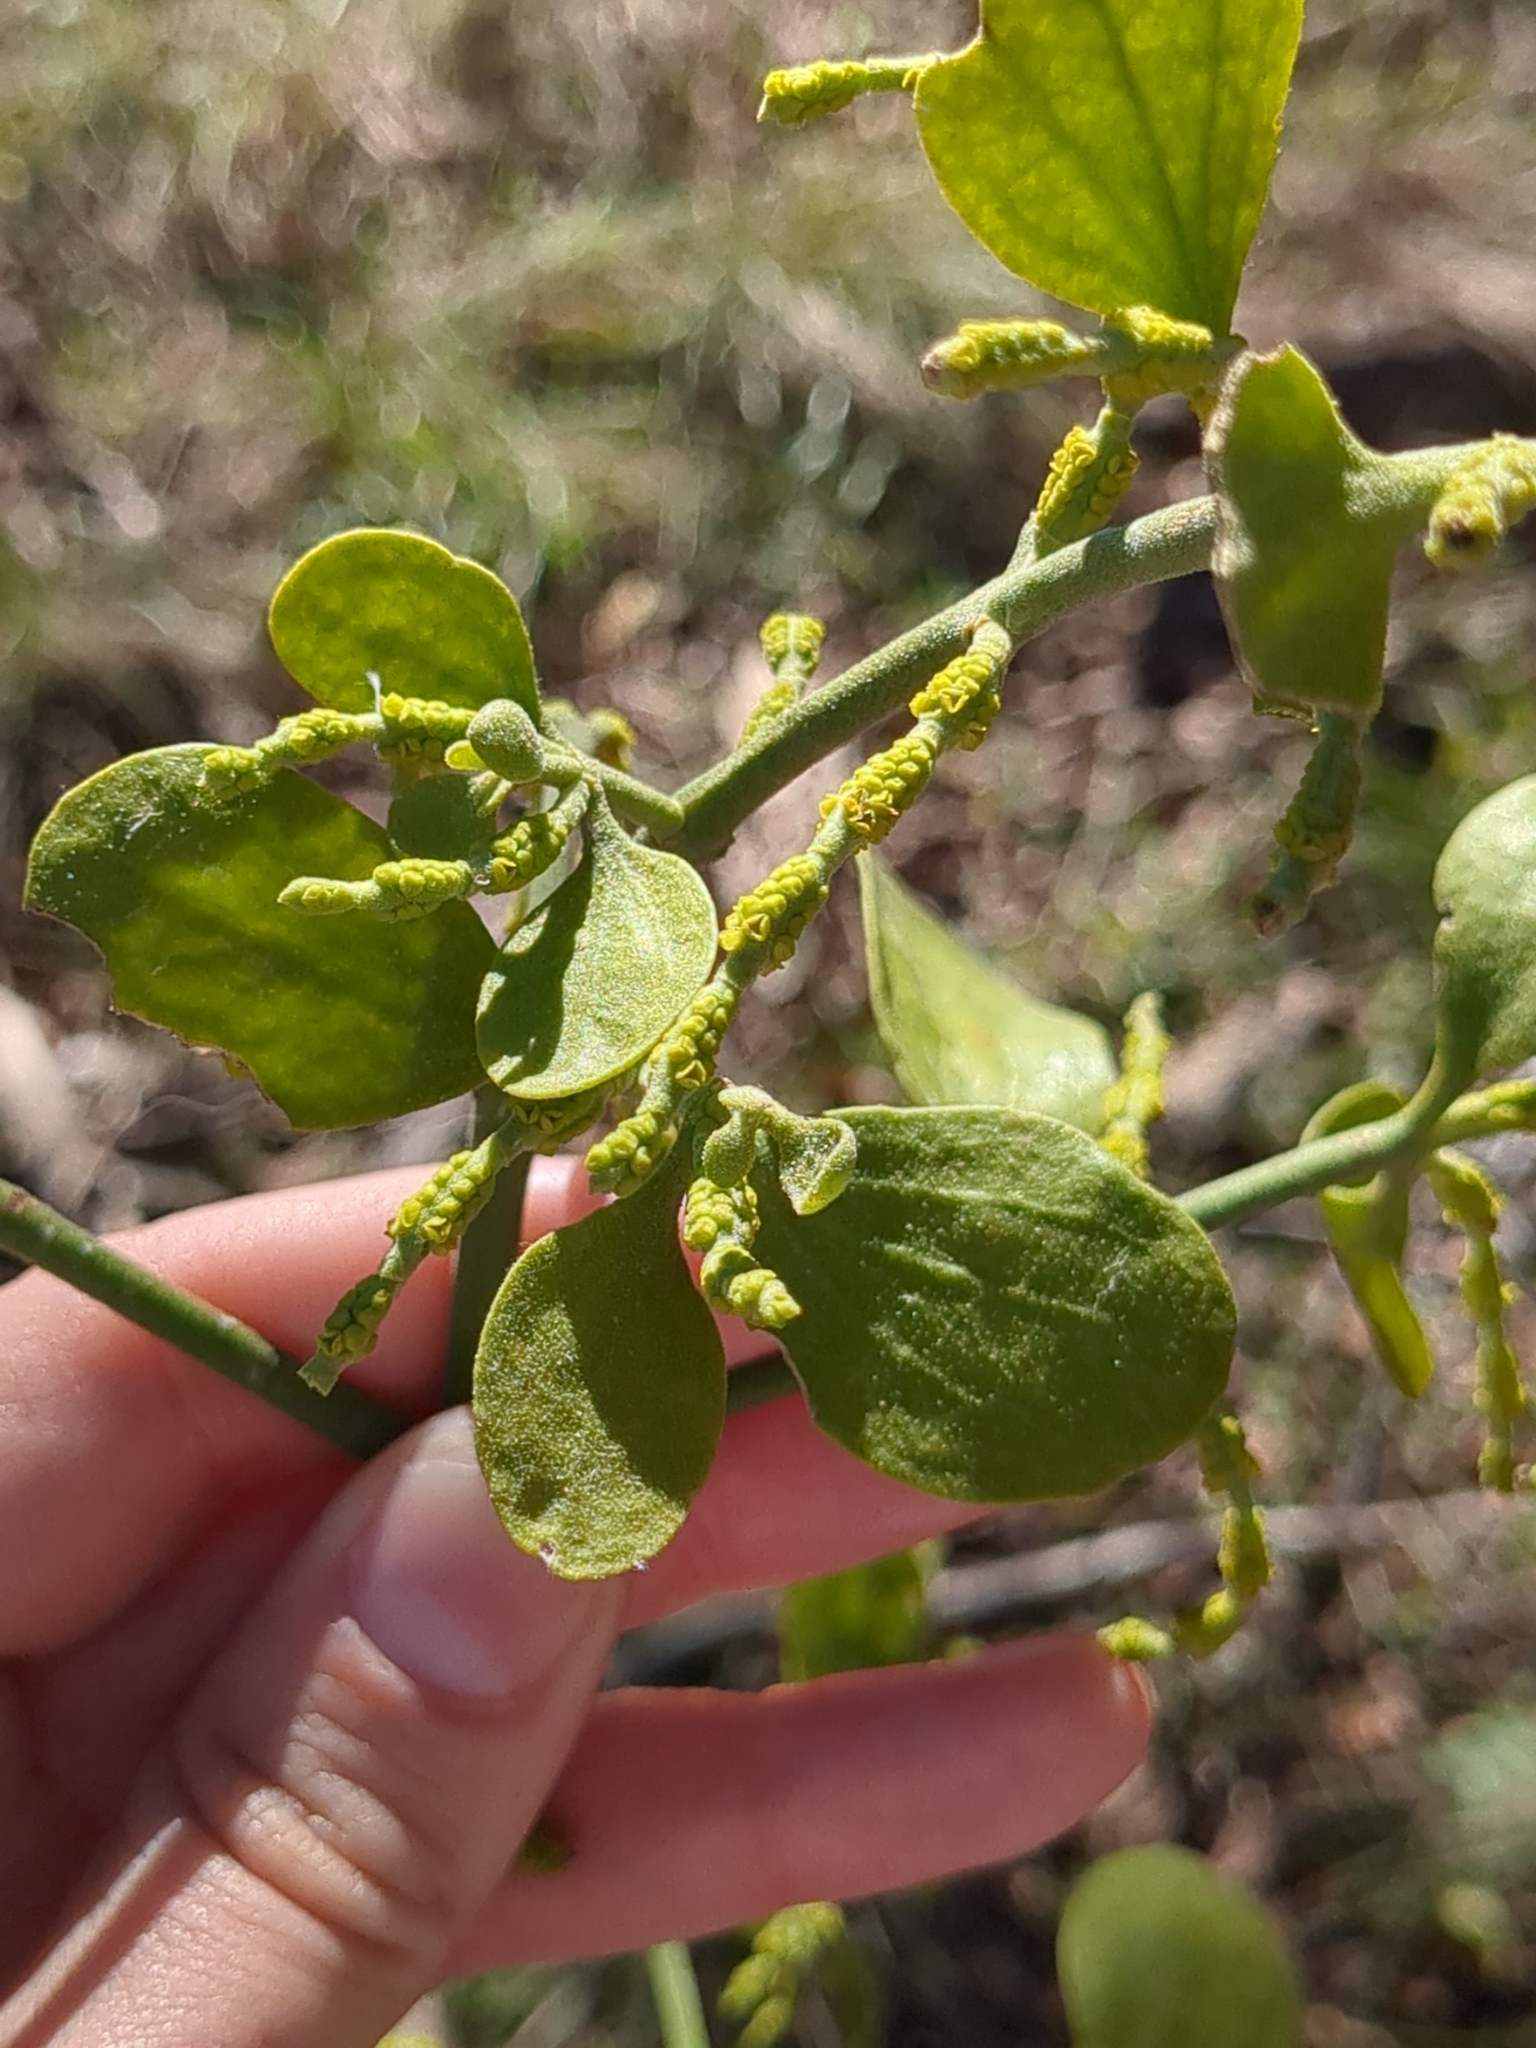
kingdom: Plantae
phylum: Tracheophyta
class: Magnoliopsida
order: Santalales
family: Viscaceae
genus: Phoradendron
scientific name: Phoradendron leucarpum
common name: Pacific mistletoe
